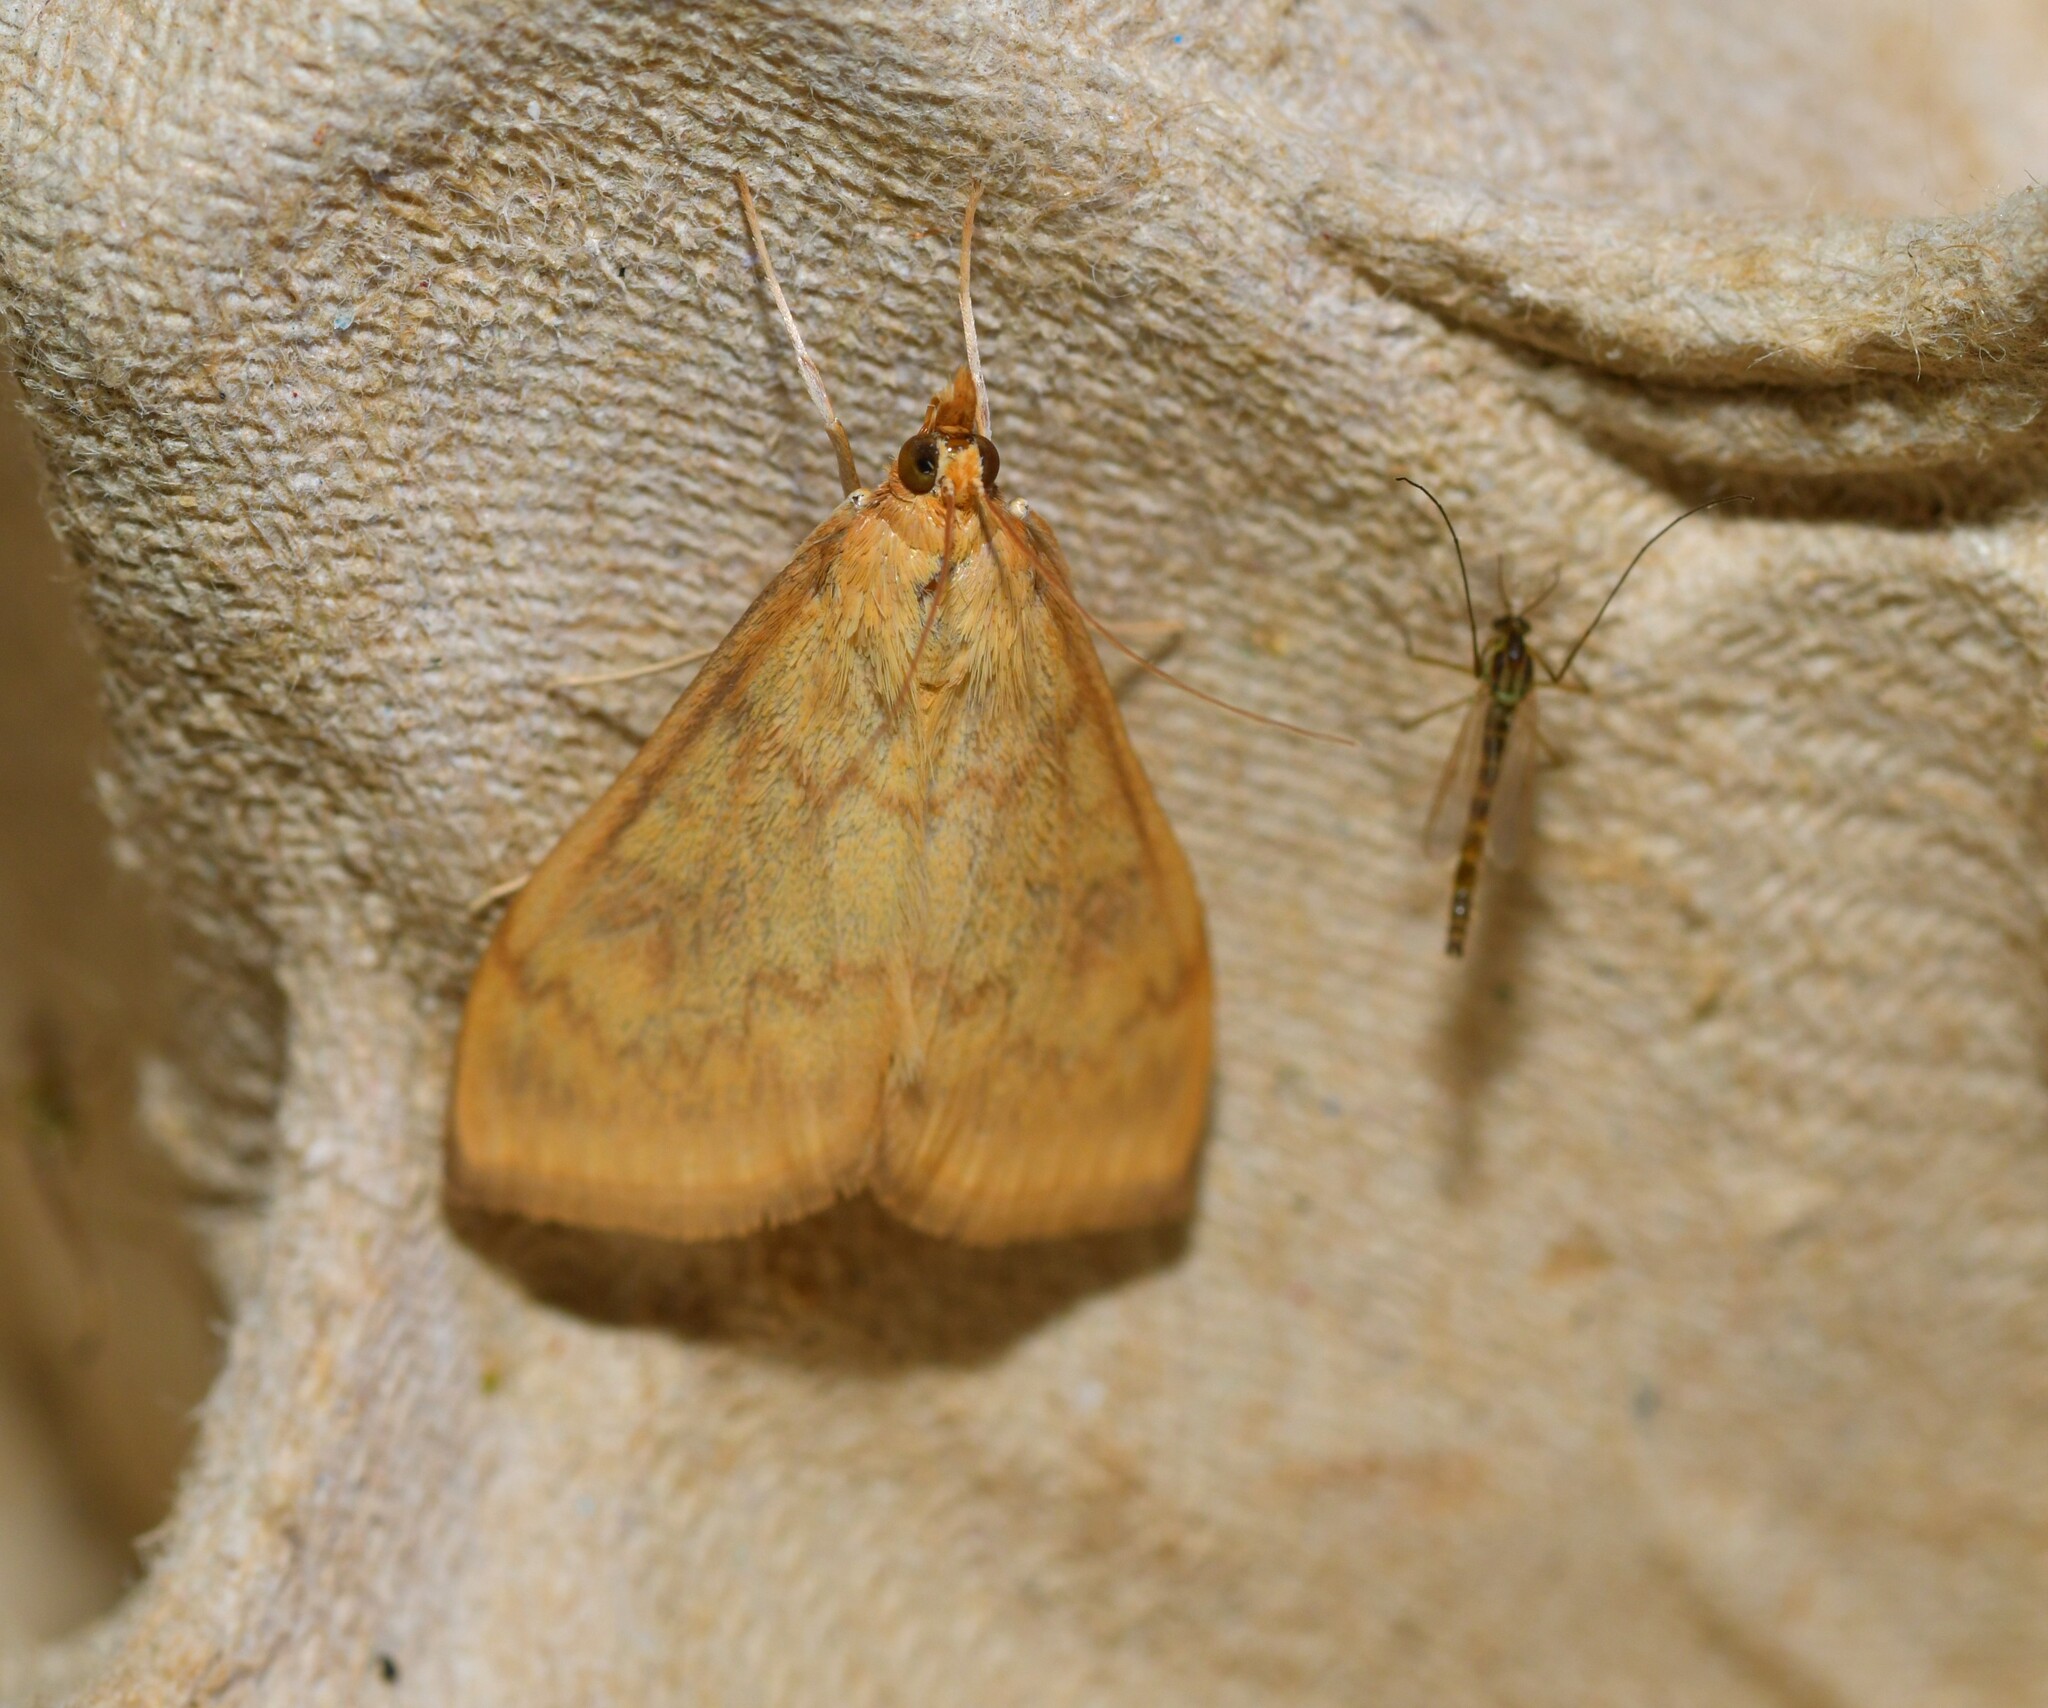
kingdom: Animalia
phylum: Arthropoda
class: Insecta
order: Lepidoptera
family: Crambidae
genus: Ostrinia
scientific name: Ostrinia nubilalis
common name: European corn borer
